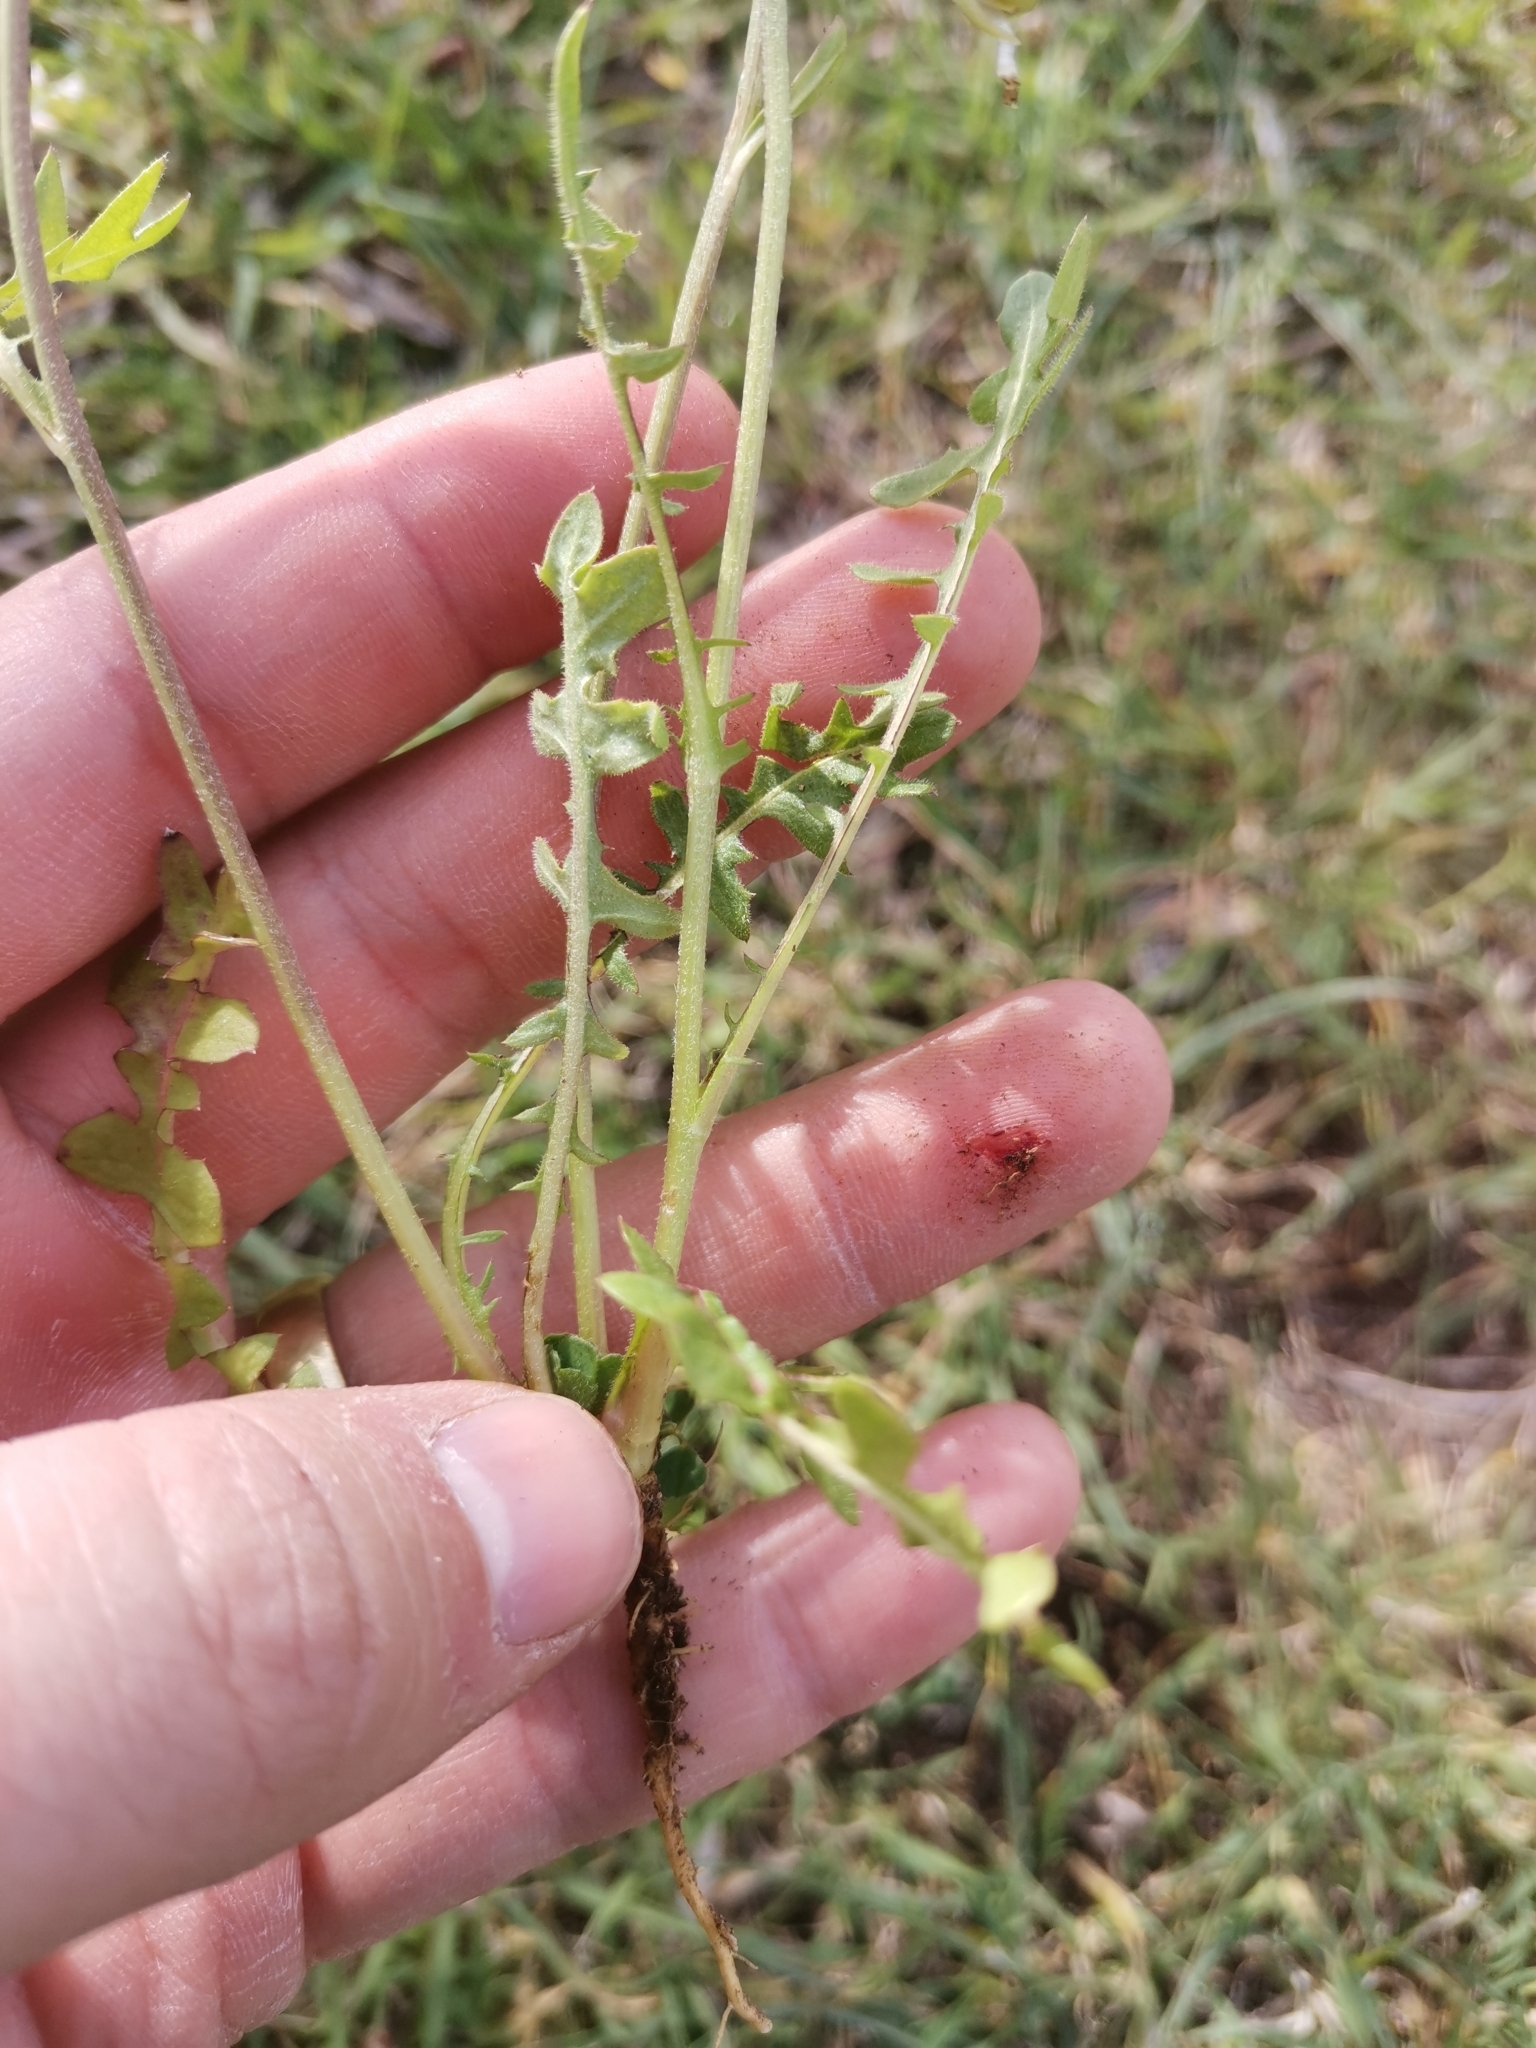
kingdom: Plantae
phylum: Tracheophyta
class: Magnoliopsida
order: Asterales
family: Asteraceae
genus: Crepis
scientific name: Crepis rubra
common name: Pink hawk's-beard
